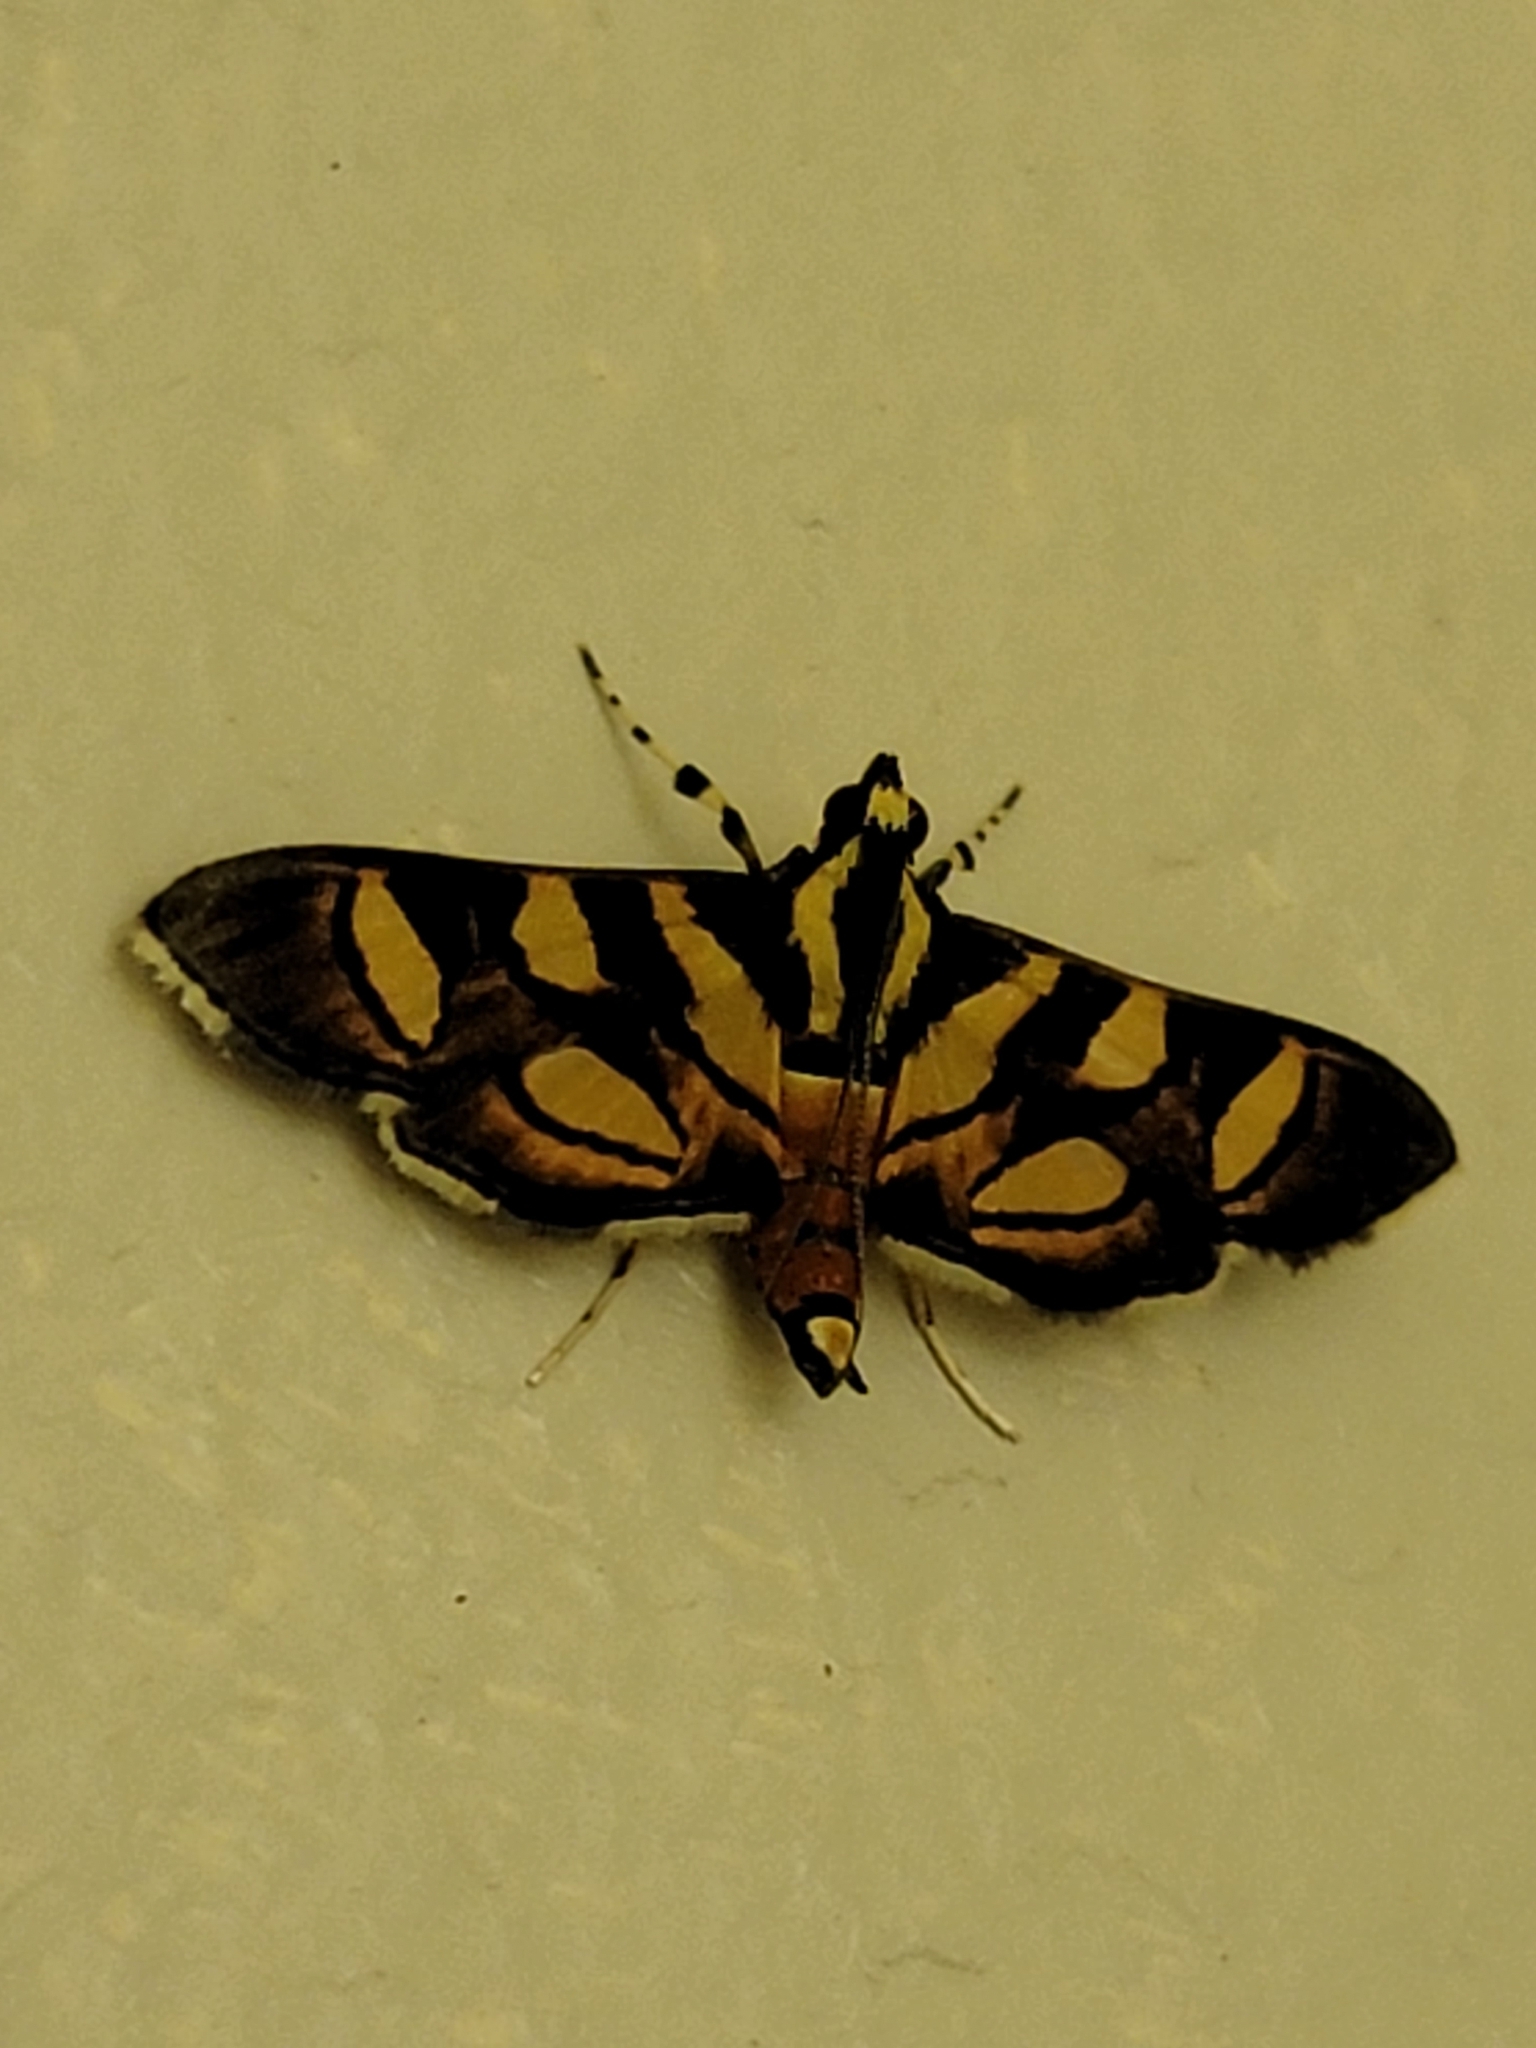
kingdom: Animalia
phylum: Arthropoda
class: Insecta
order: Lepidoptera
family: Crambidae
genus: Syngamia
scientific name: Syngamia florella
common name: Orange-spotted flower moth
